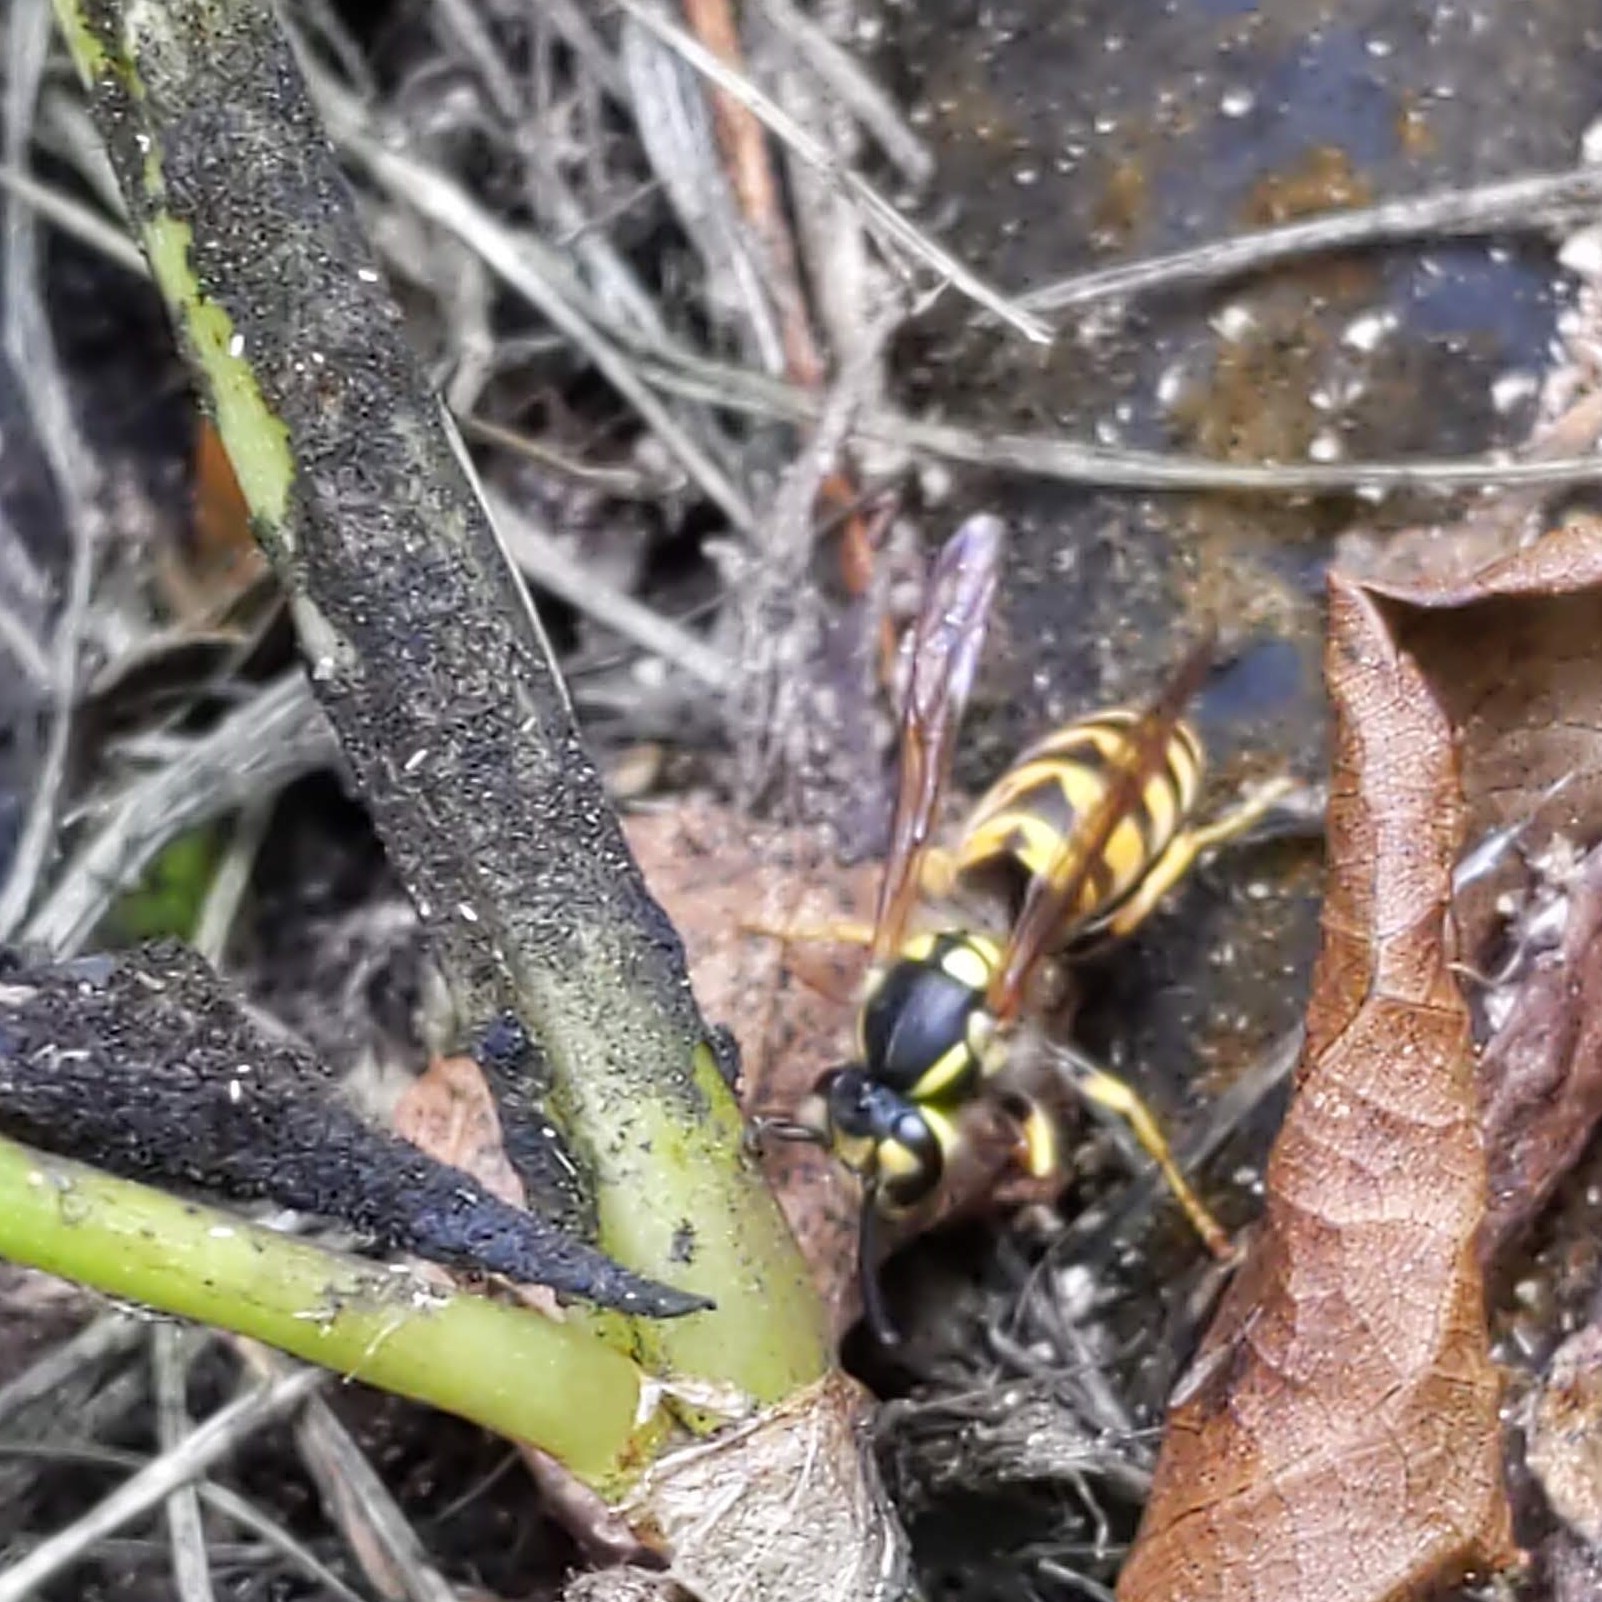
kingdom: Animalia
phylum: Arthropoda
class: Insecta
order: Hymenoptera
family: Vespidae
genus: Vespula
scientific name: Vespula germanica
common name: German wasp
